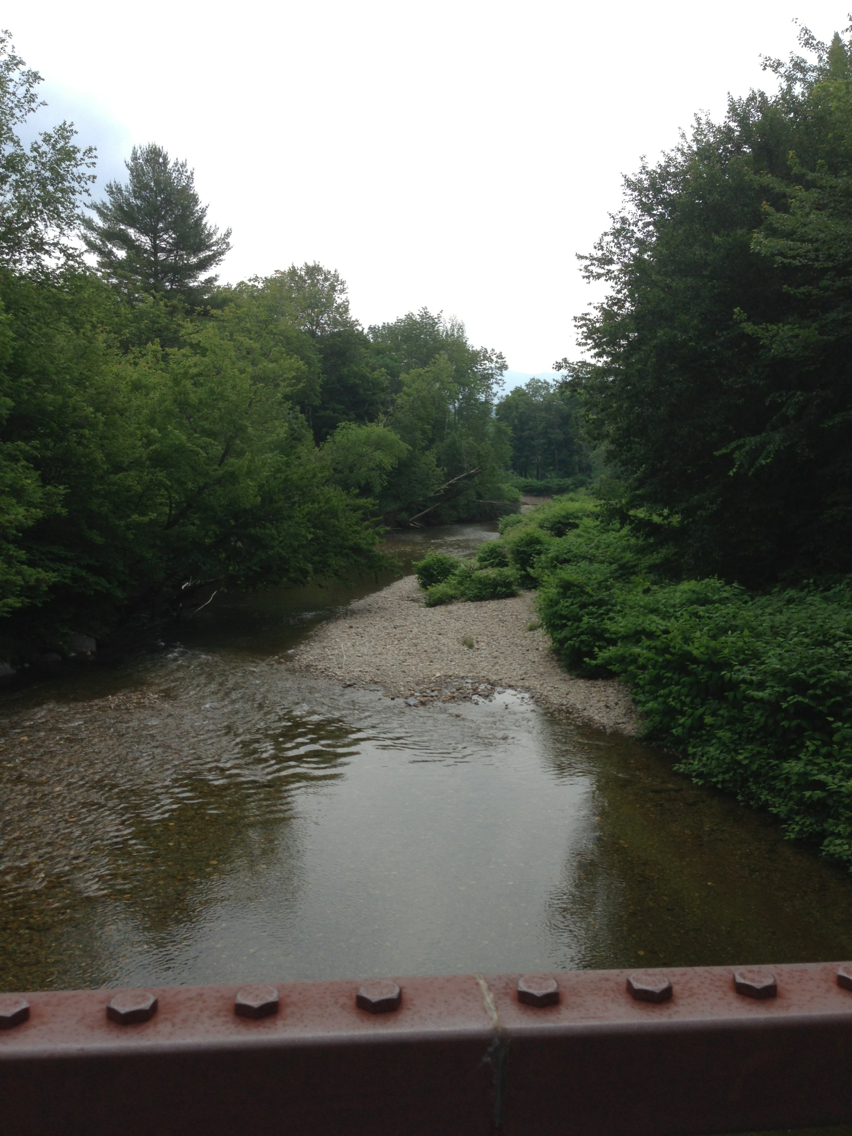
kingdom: Plantae
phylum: Tracheophyta
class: Magnoliopsida
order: Caryophyllales
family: Polygonaceae
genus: Reynoutria
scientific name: Reynoutria japonica
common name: Japanese knotweed
